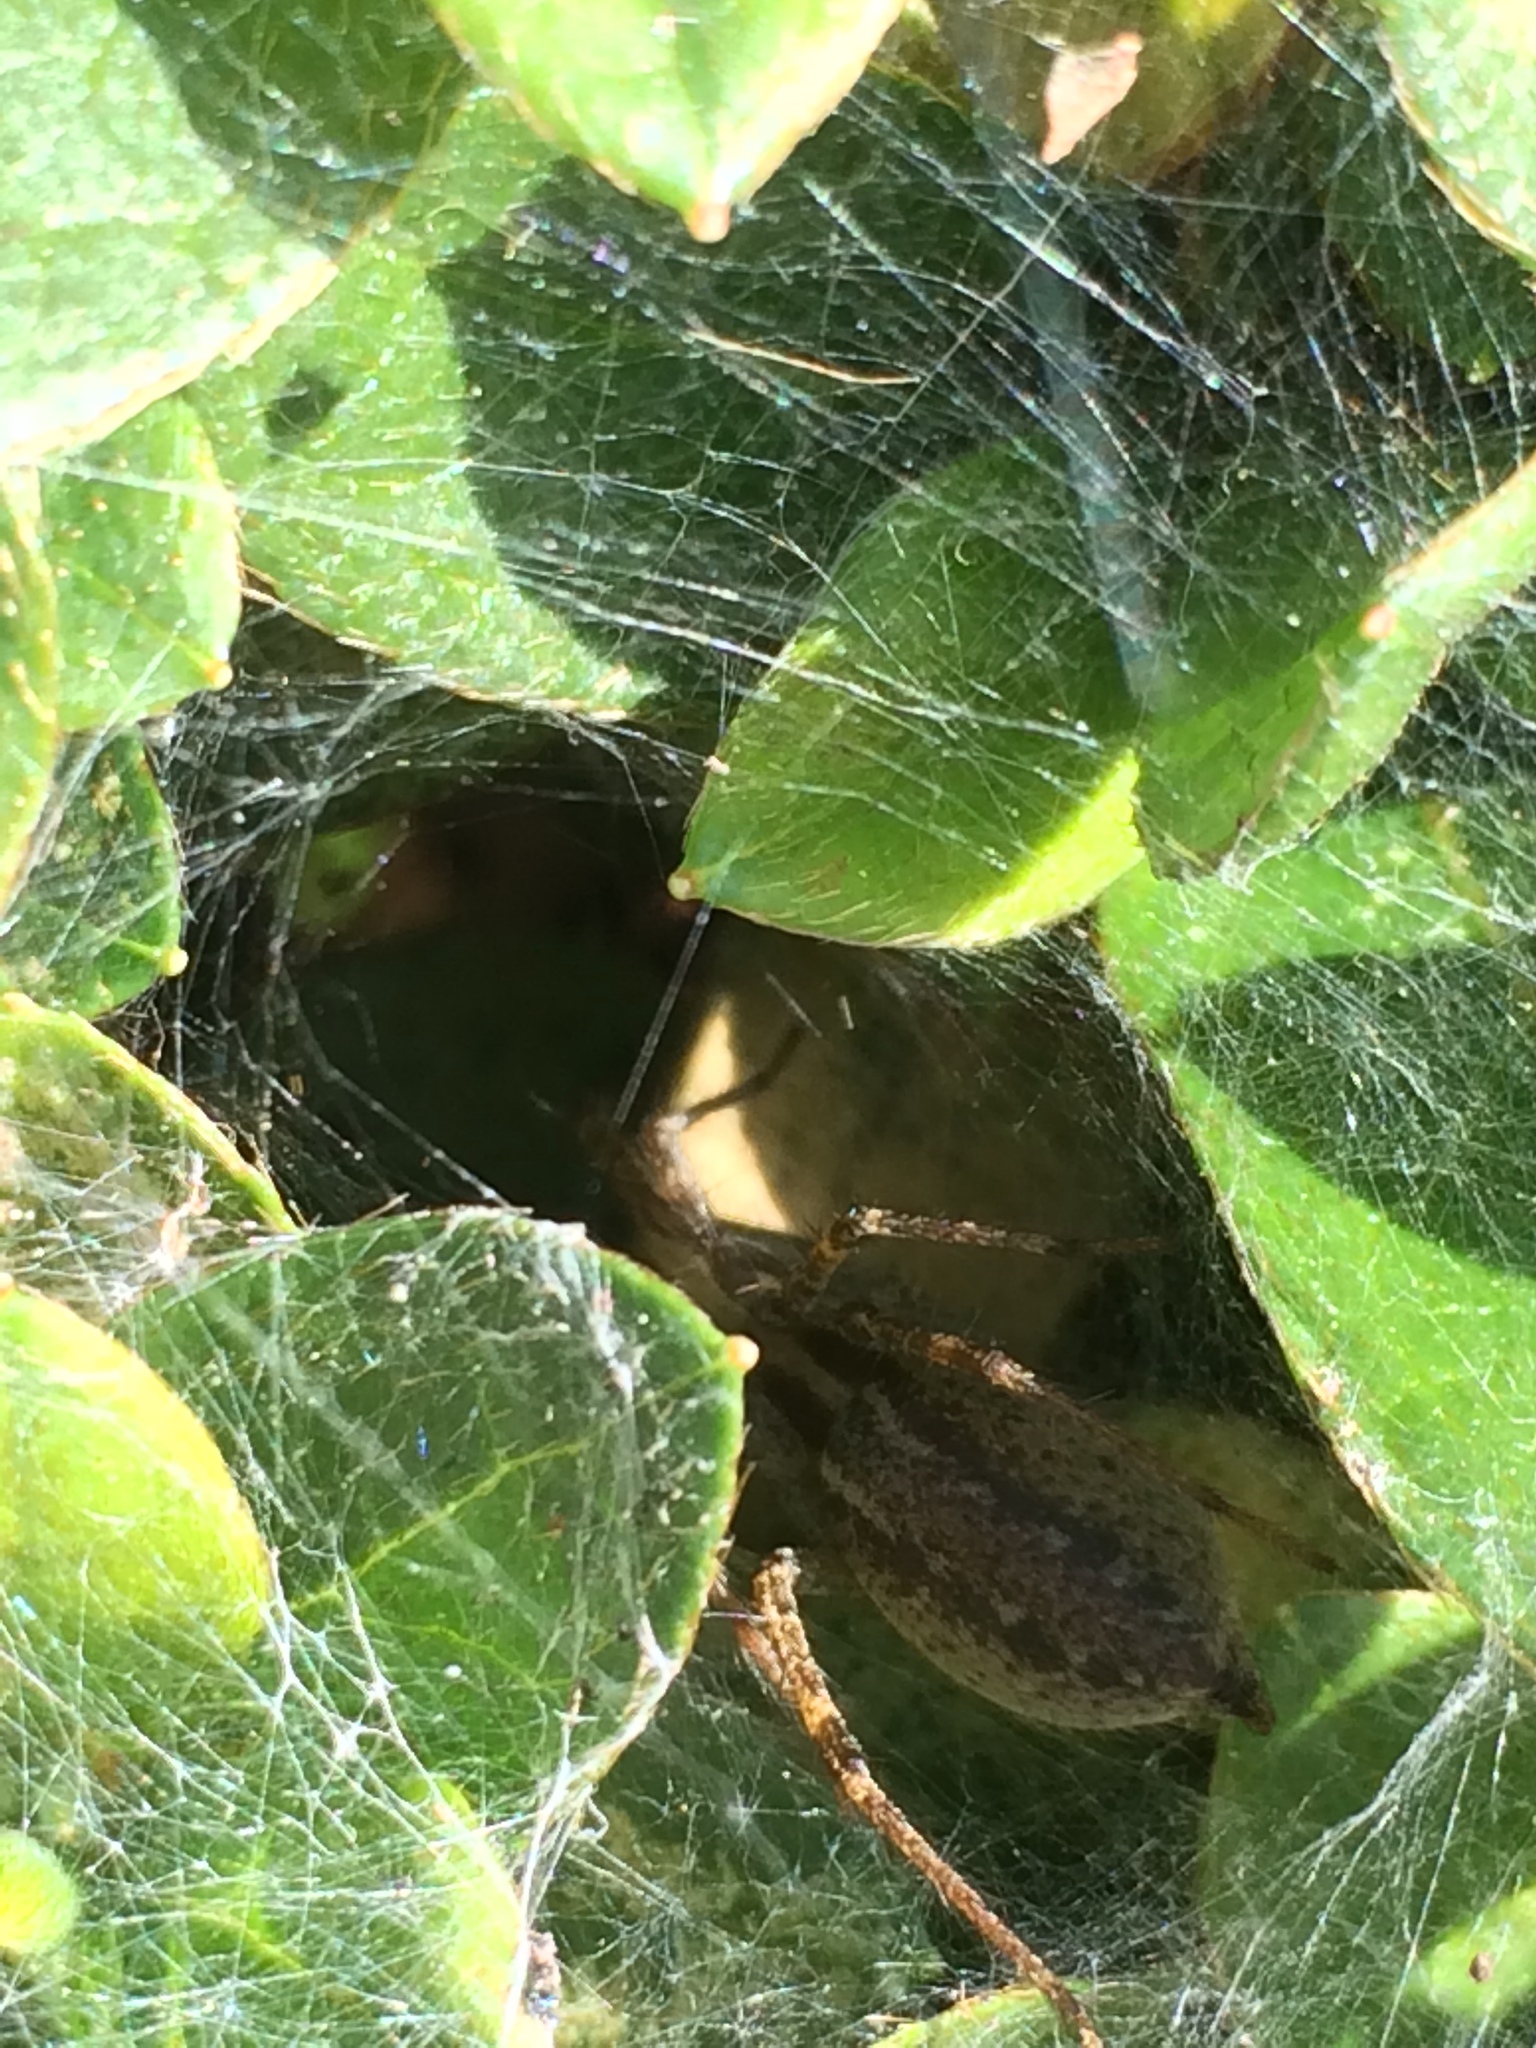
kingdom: Animalia
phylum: Arthropoda
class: Arachnida
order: Araneae
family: Agelenidae
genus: Agelenopsis
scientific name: Agelenopsis
